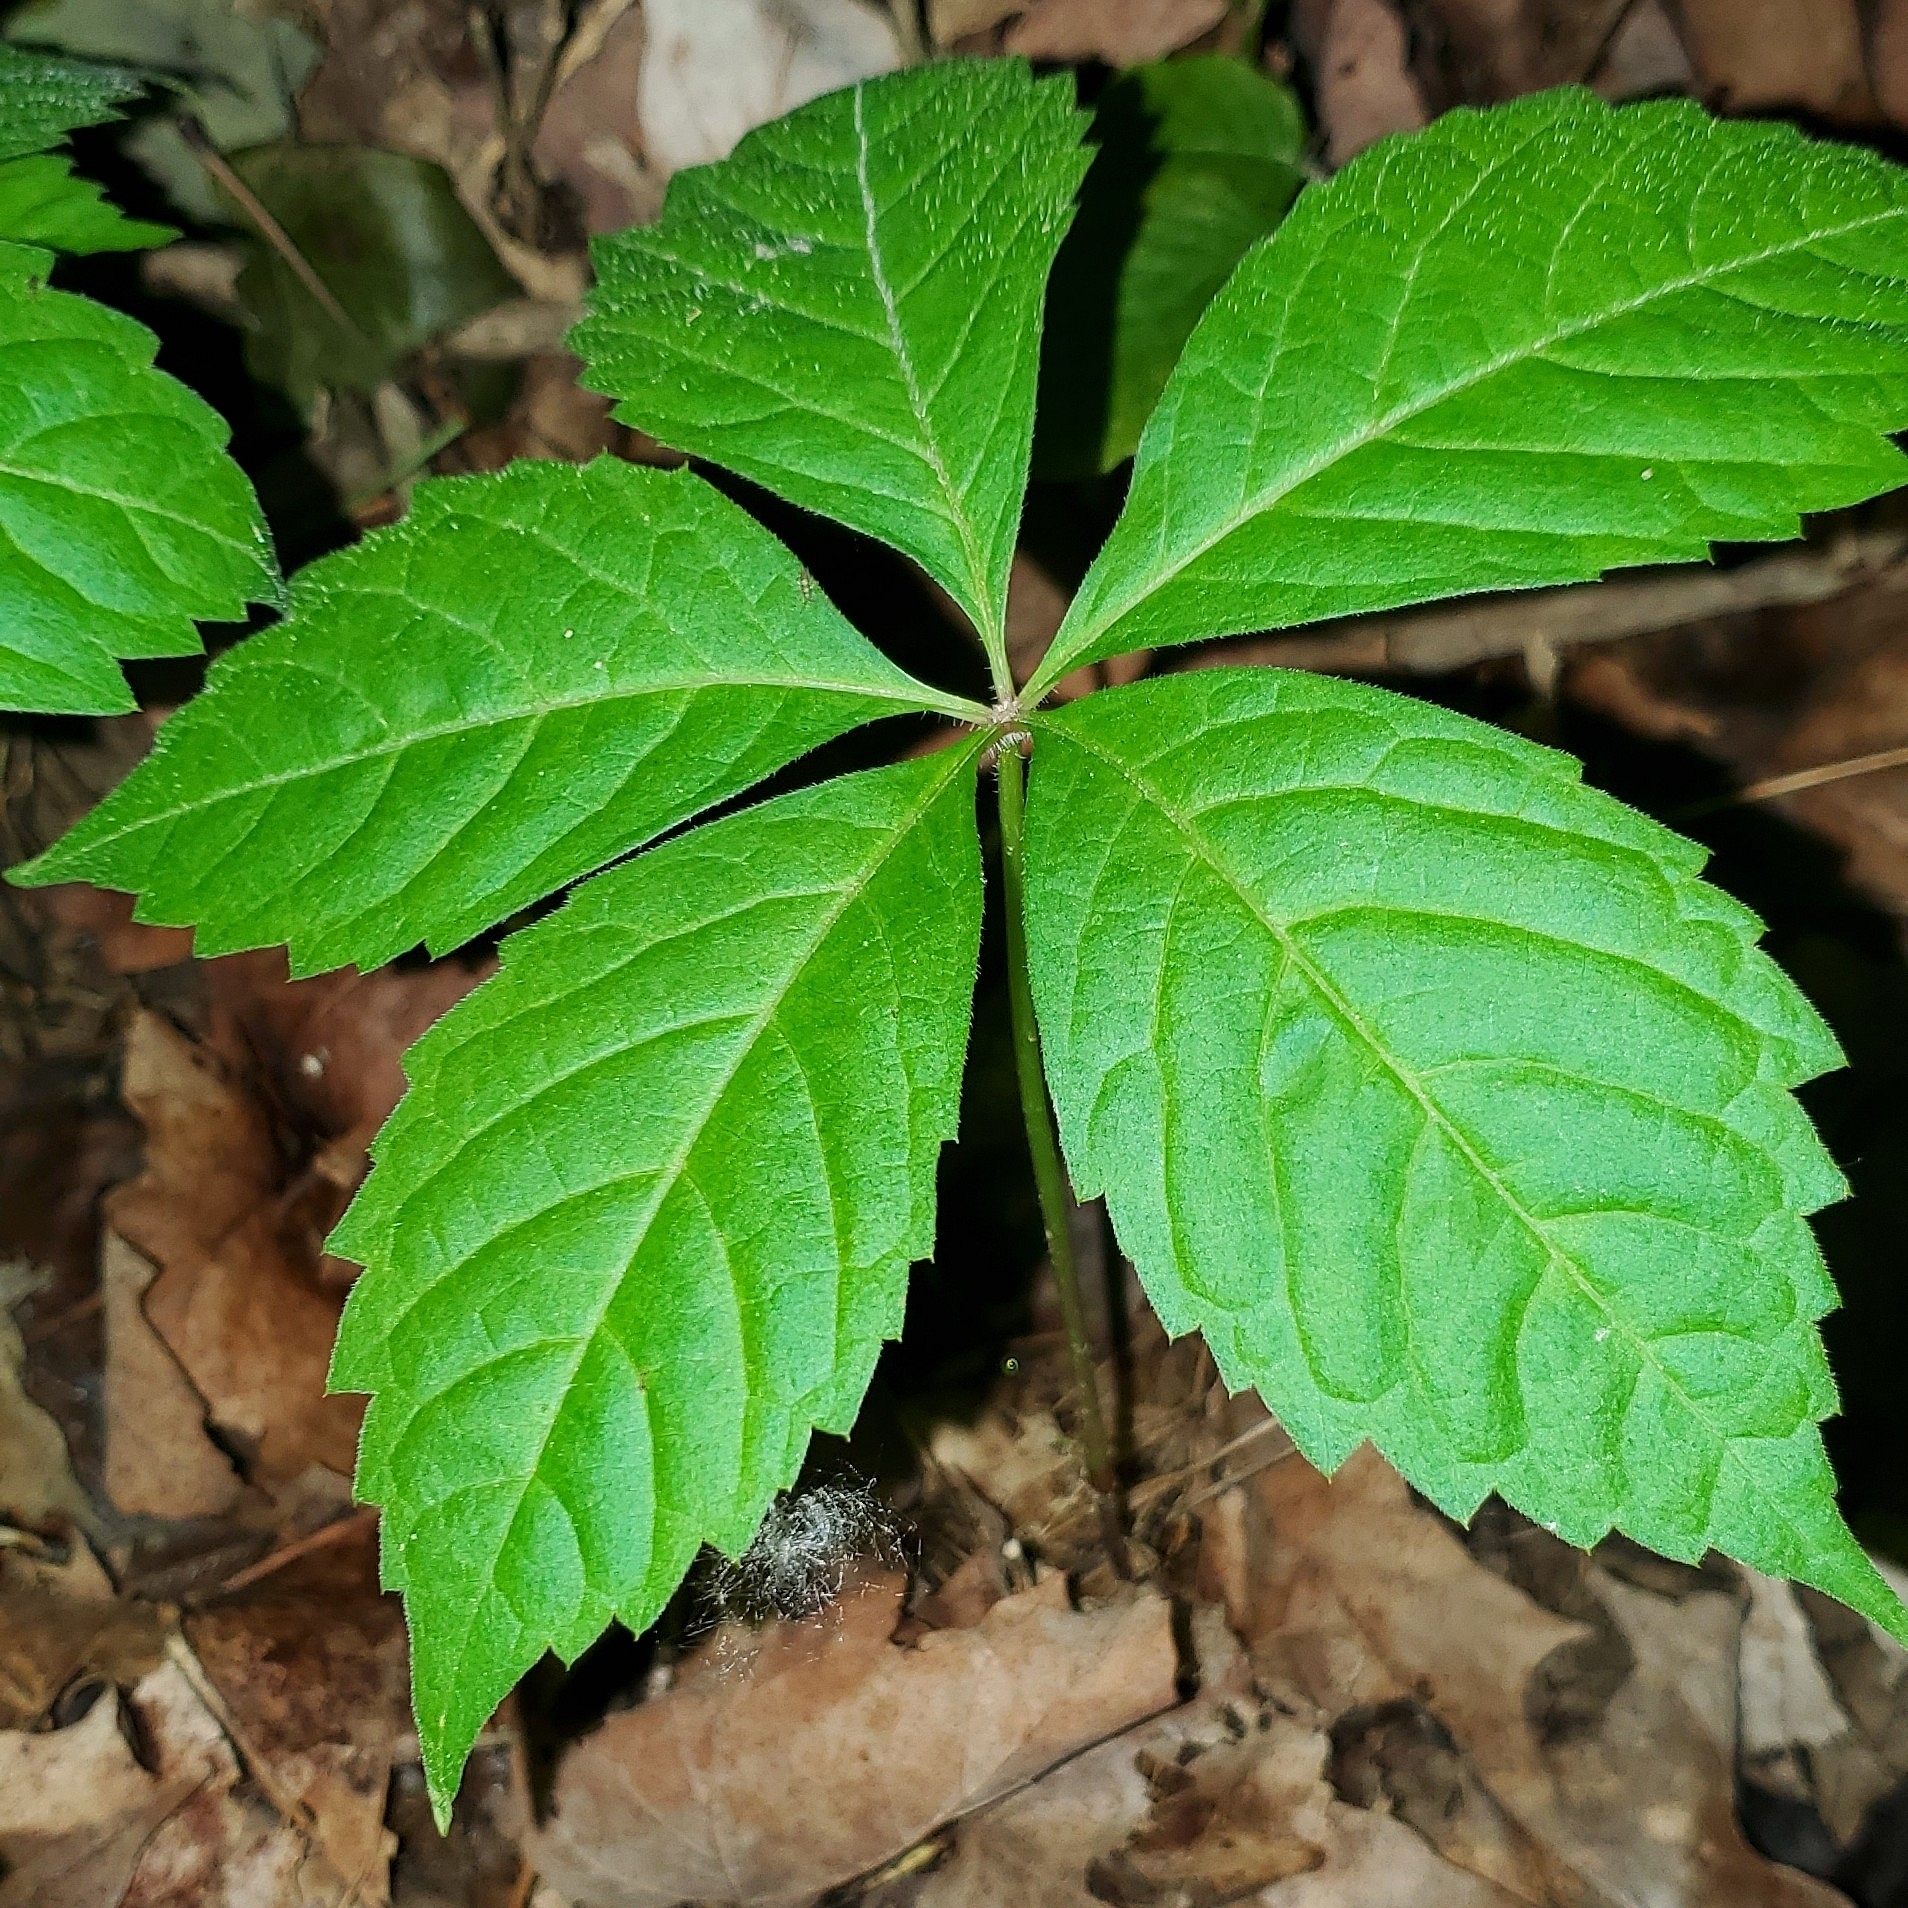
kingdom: Plantae
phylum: Tracheophyta
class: Magnoliopsida
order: Vitales
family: Vitaceae
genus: Parthenocissus
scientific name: Parthenocissus quinquefolia
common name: Virginia-creeper
